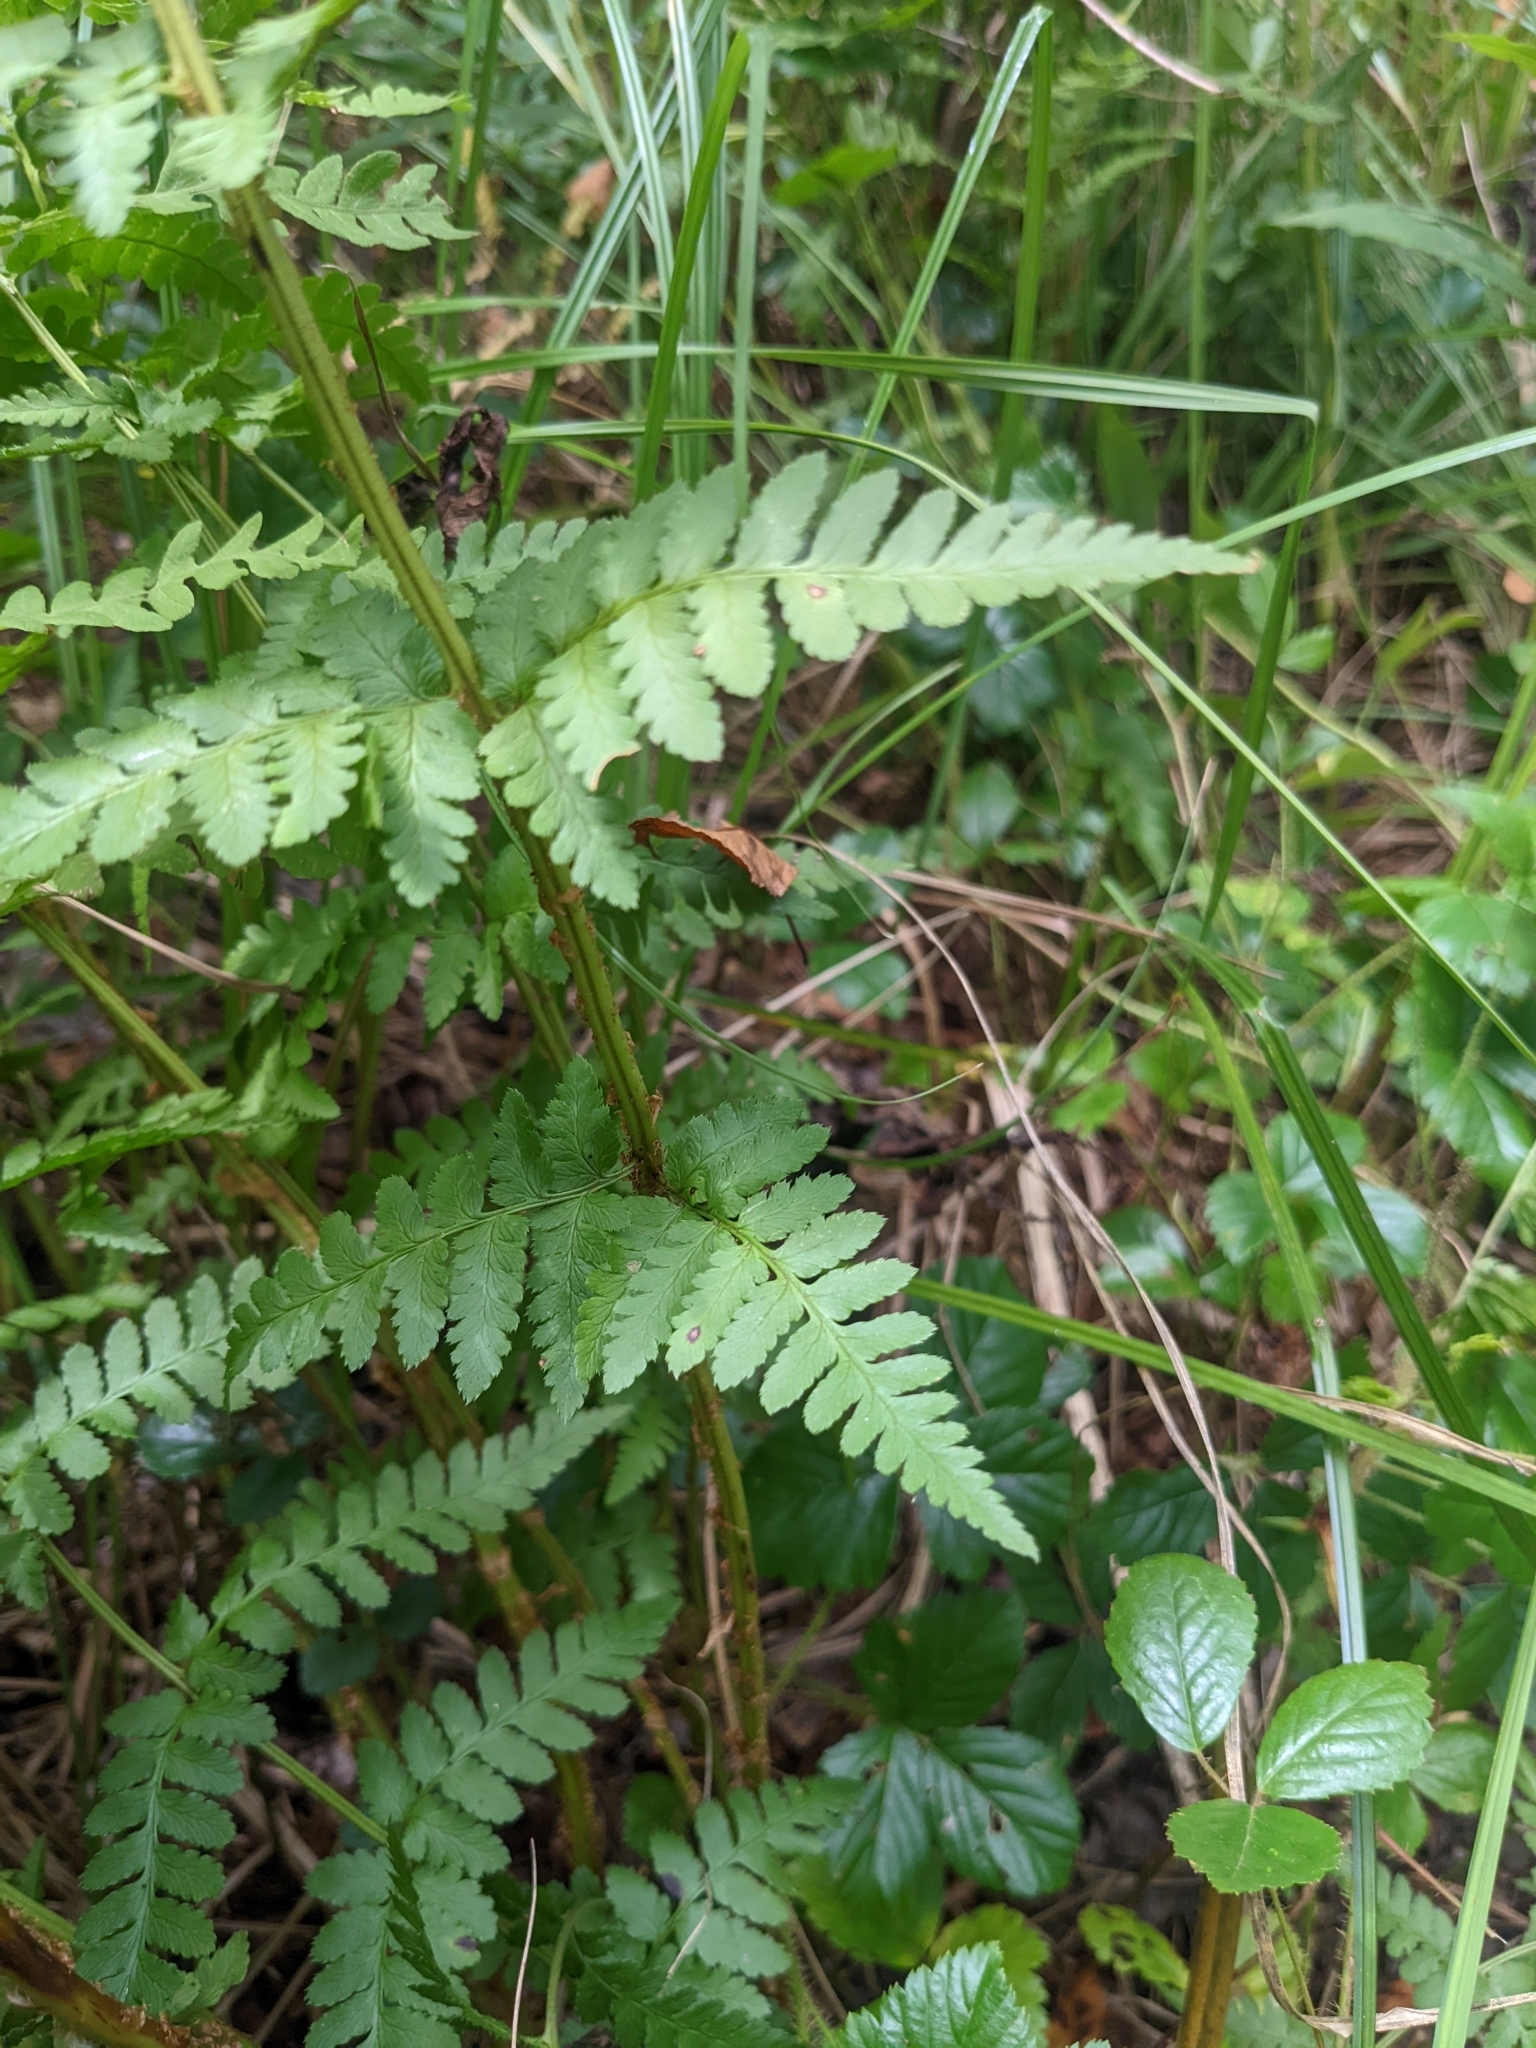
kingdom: Plantae
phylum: Tracheophyta
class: Polypodiopsida
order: Polypodiales
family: Dryopteridaceae
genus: Dryopteris
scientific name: Dryopteris cristata
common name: Crested wood fern
